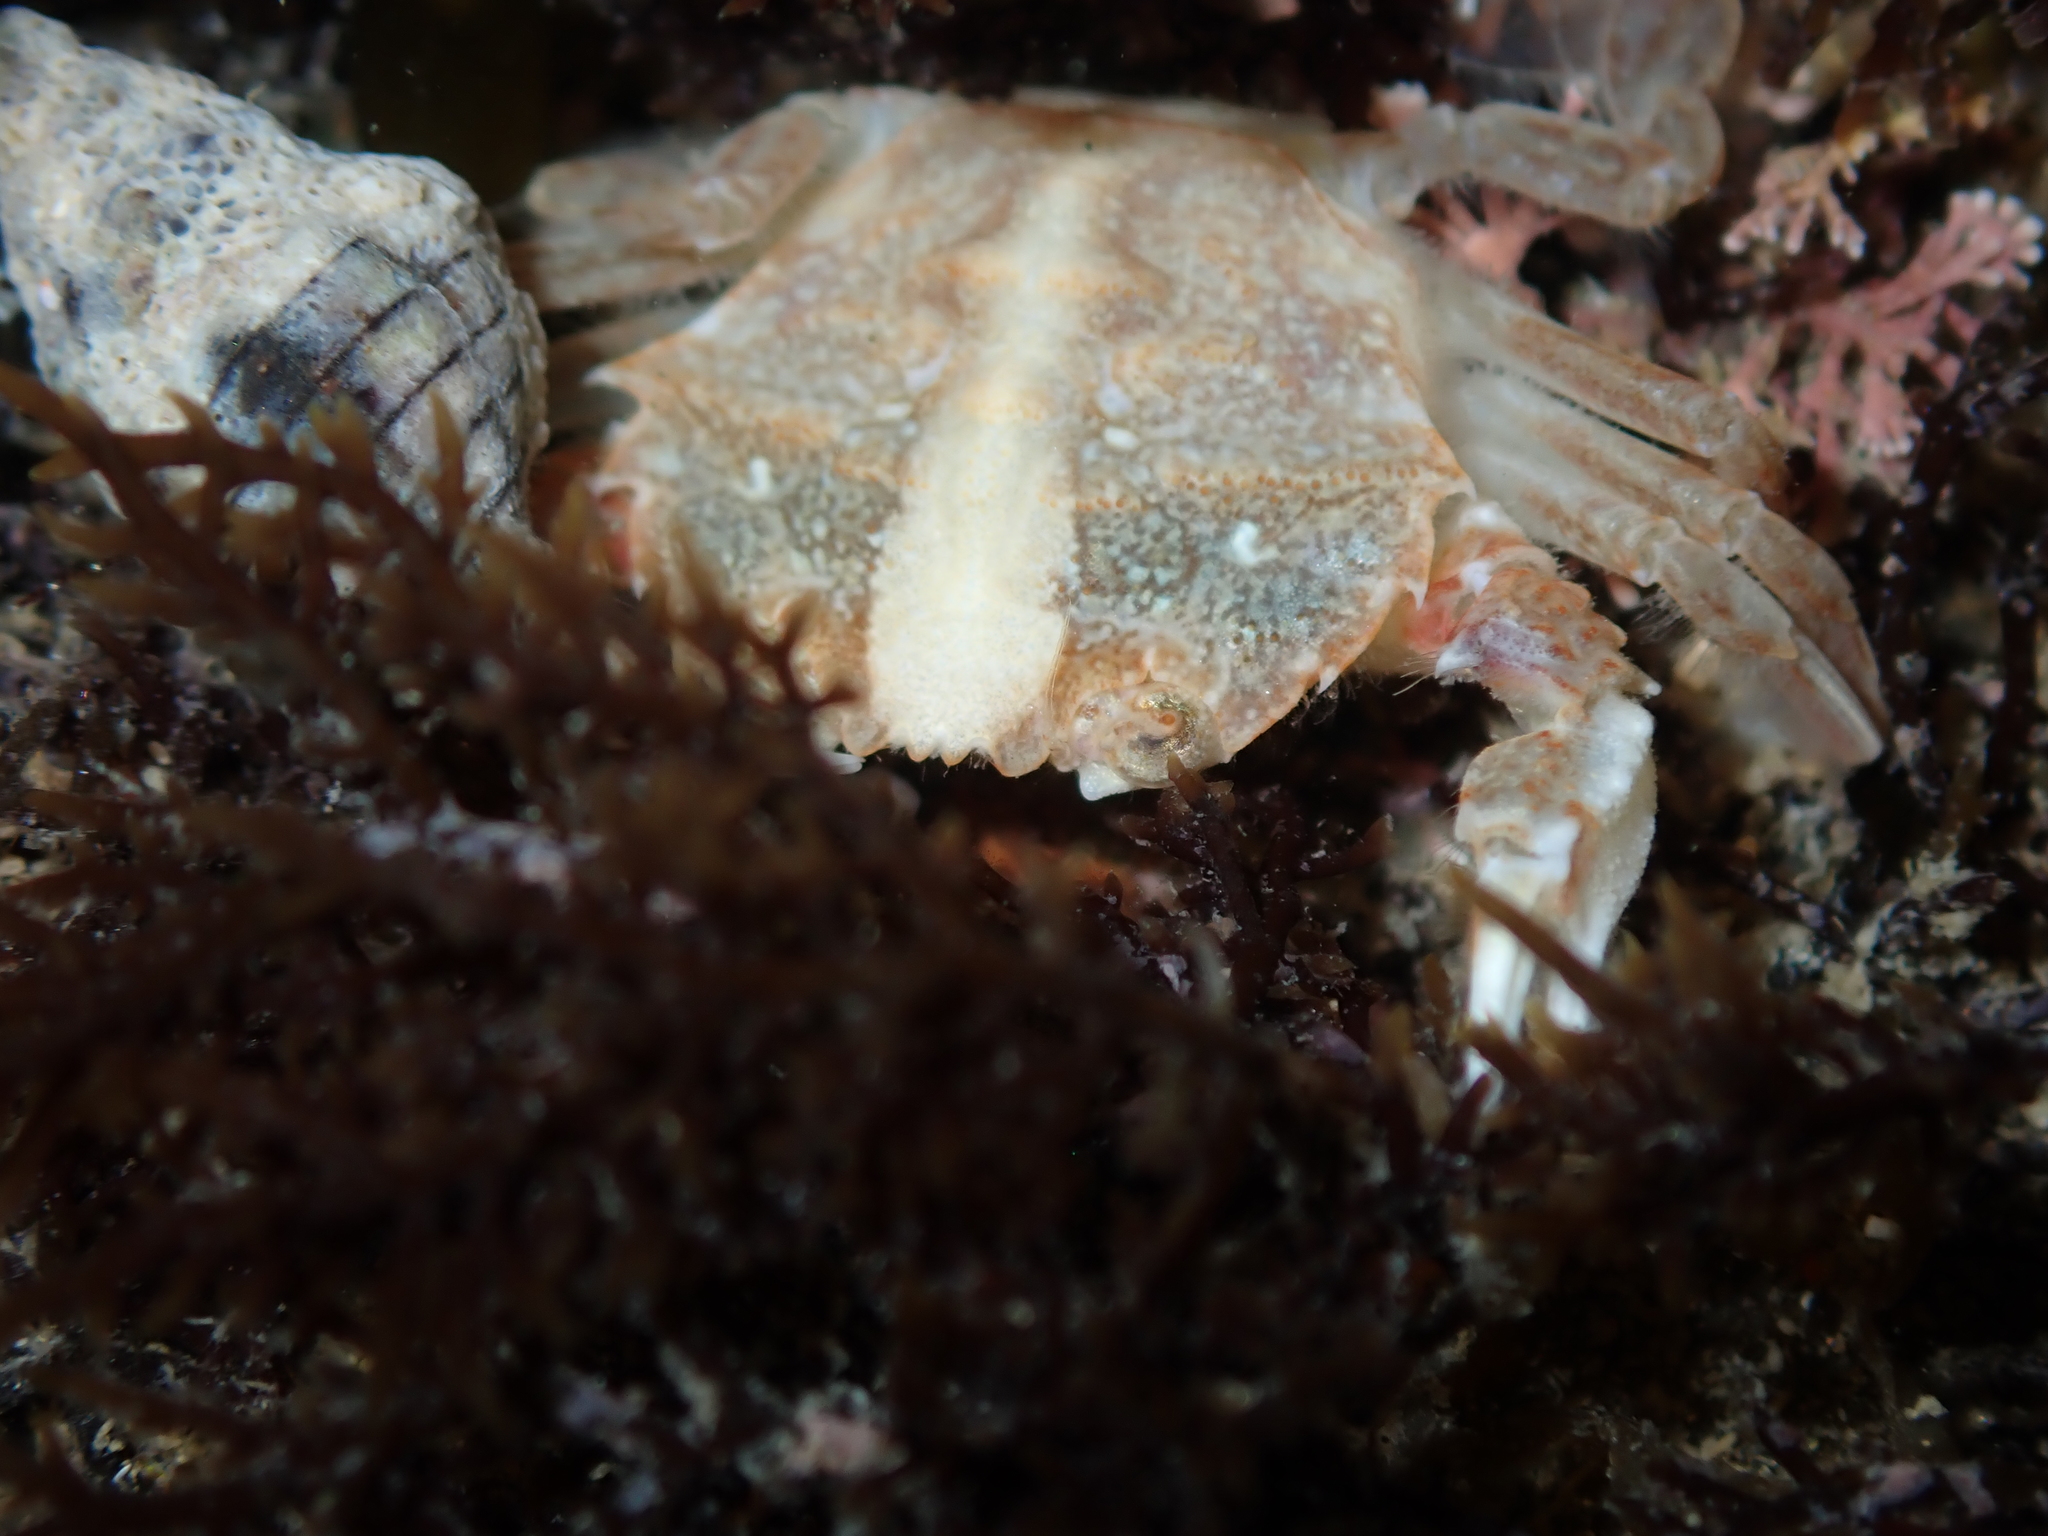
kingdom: Animalia
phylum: Arthropoda
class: Malacostraca
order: Decapoda
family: Geryonidae
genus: Nectocarcinus
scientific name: Nectocarcinus antarcticus
